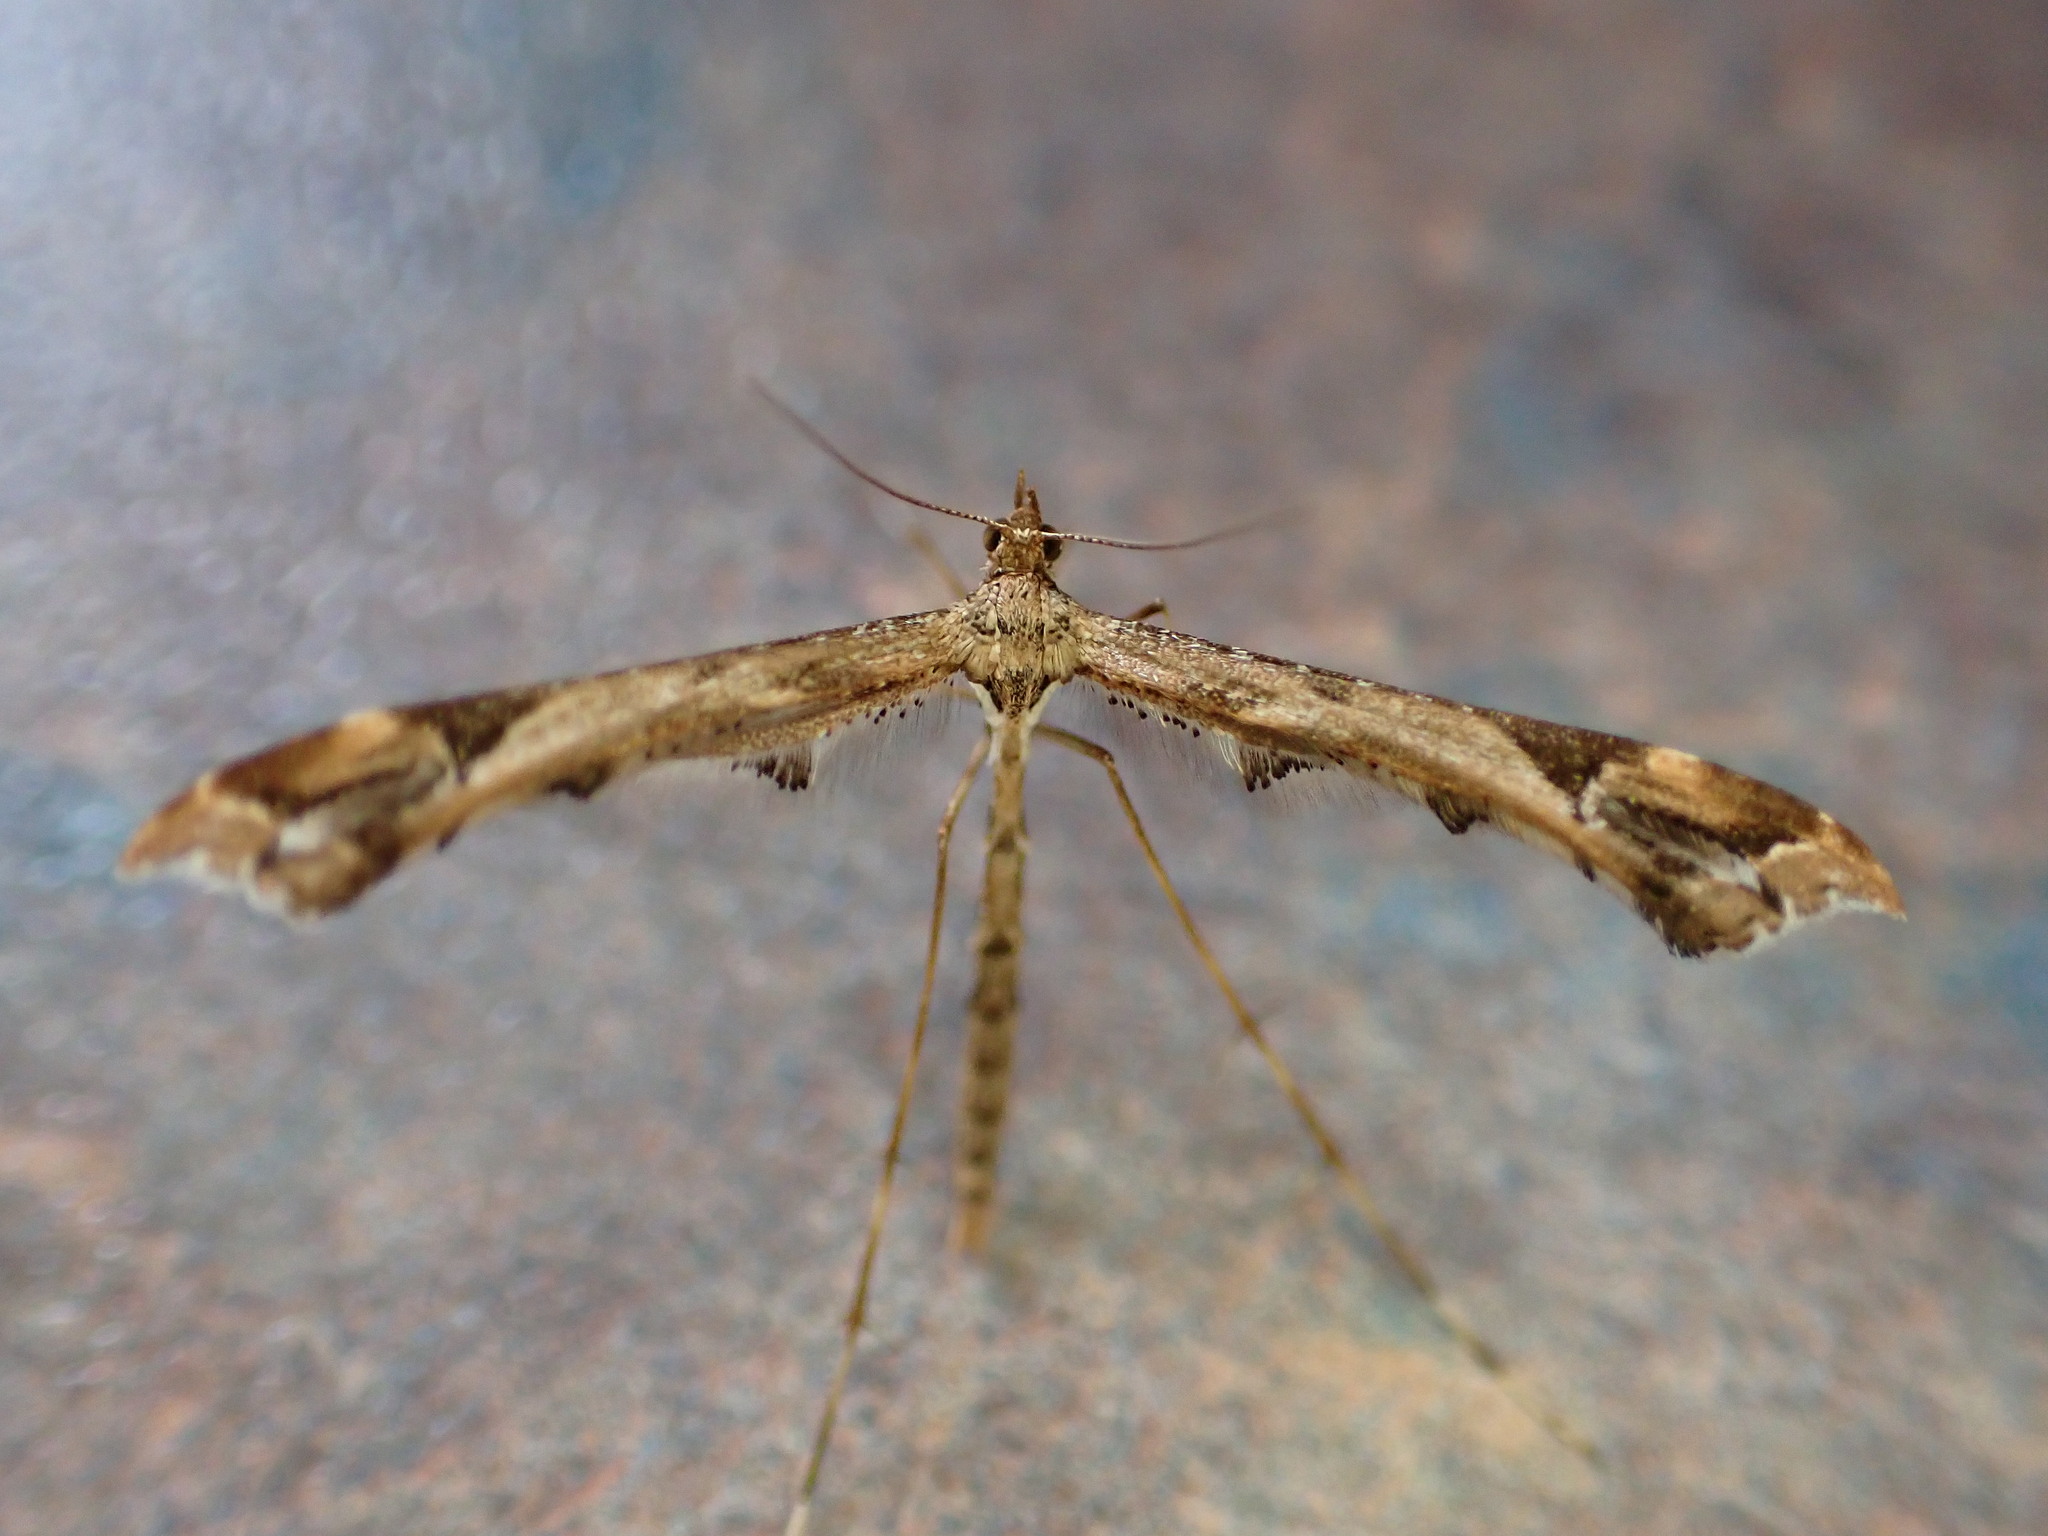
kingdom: Animalia
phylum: Arthropoda
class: Insecta
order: Lepidoptera
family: Pterophoridae
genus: Amblyptilia
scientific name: Amblyptilia acanthadactyla
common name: Beautiful plume
